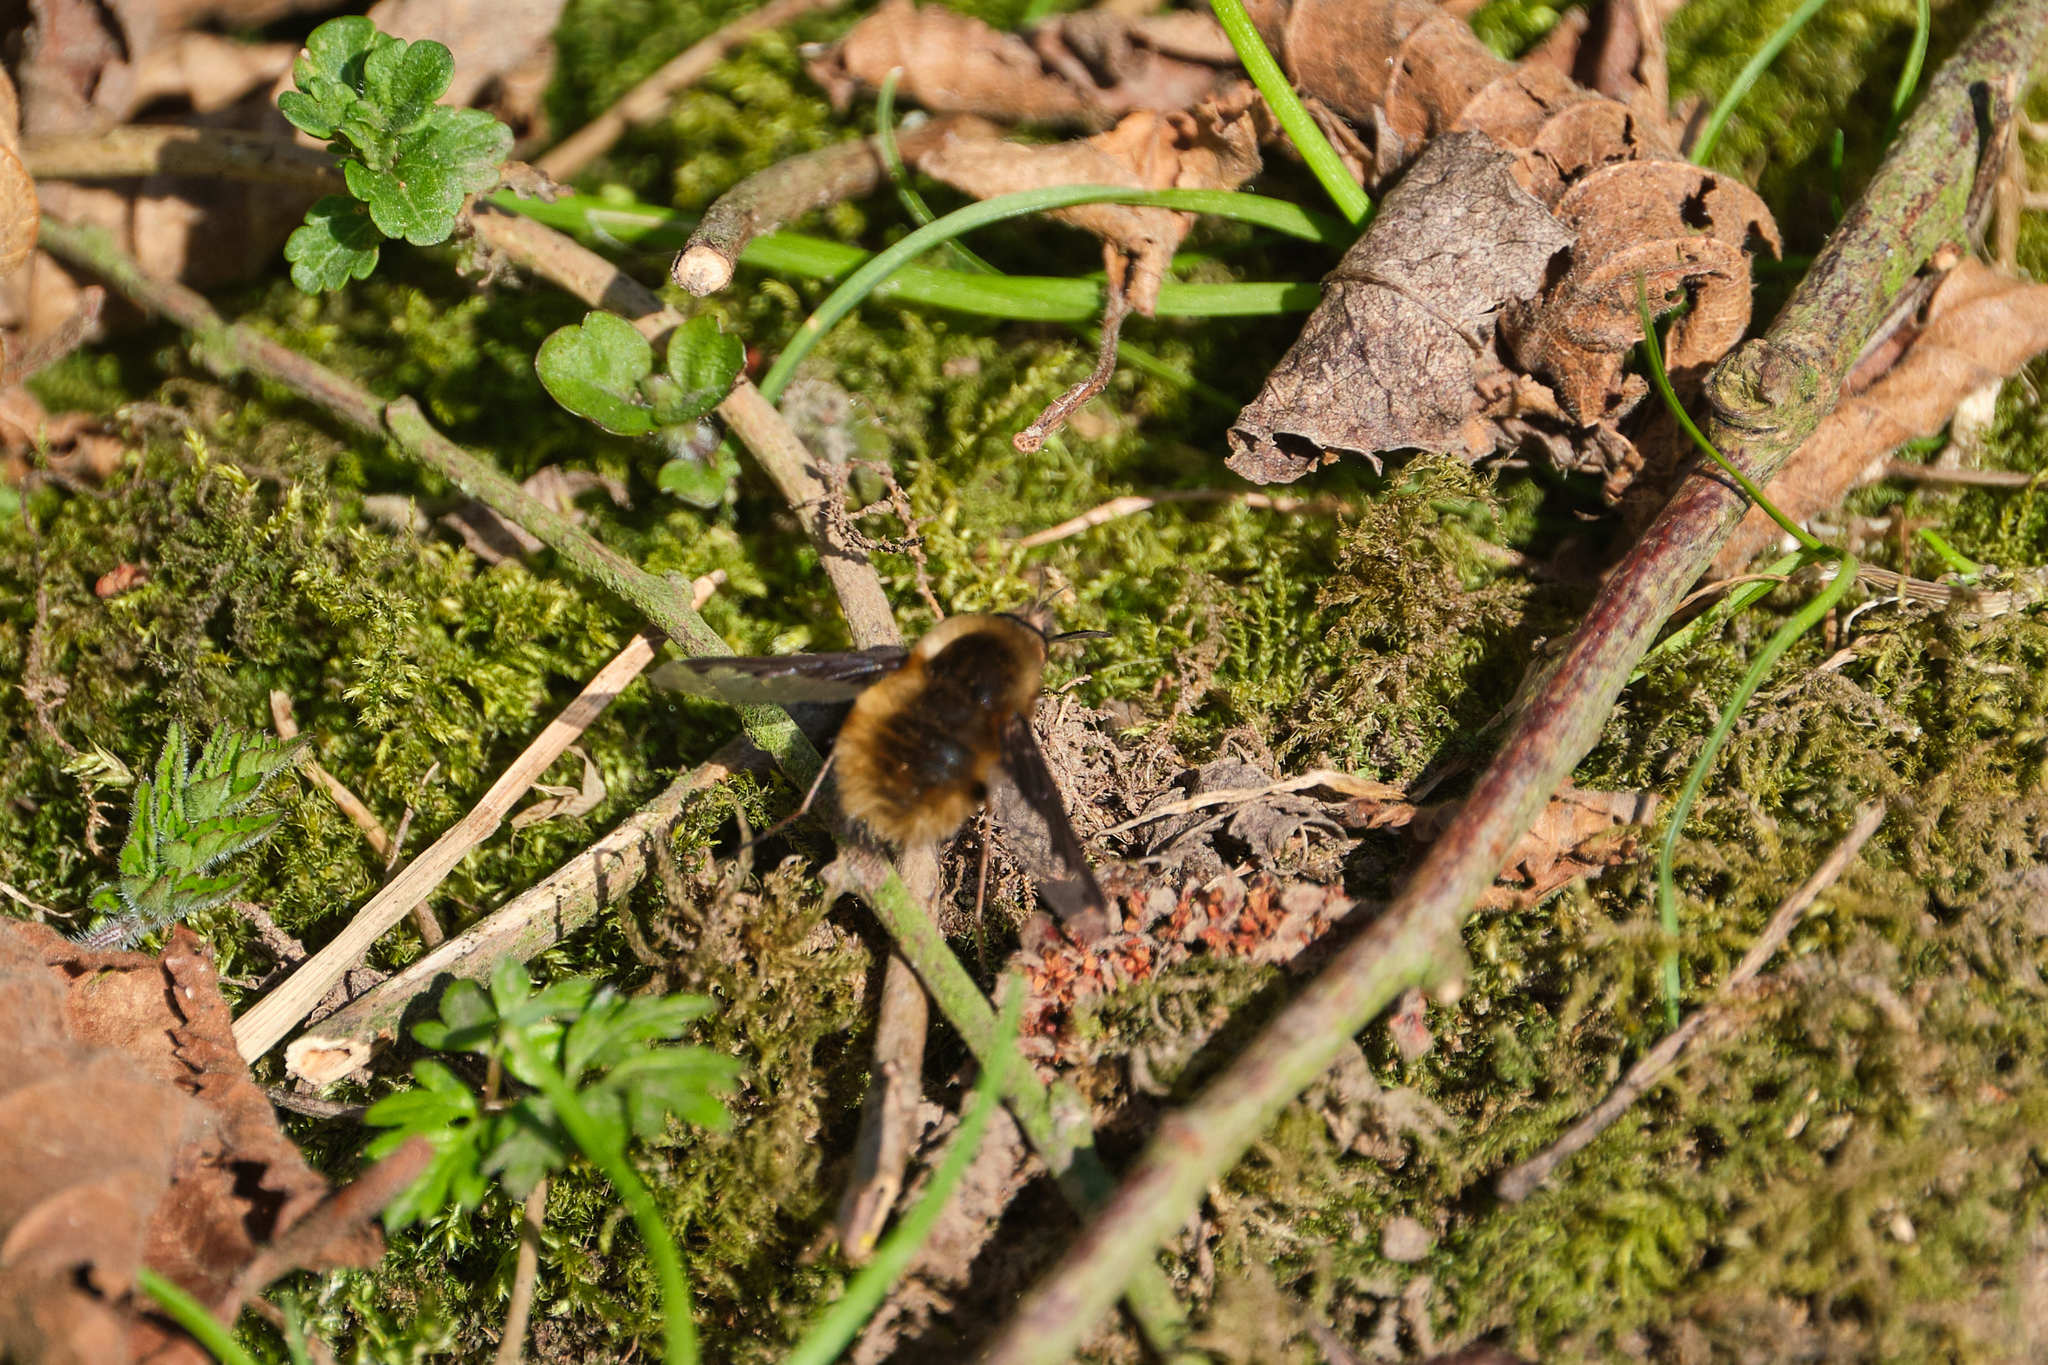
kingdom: Animalia
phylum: Arthropoda
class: Insecta
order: Diptera
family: Bombyliidae
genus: Bombylius
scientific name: Bombylius major
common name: Bee fly
